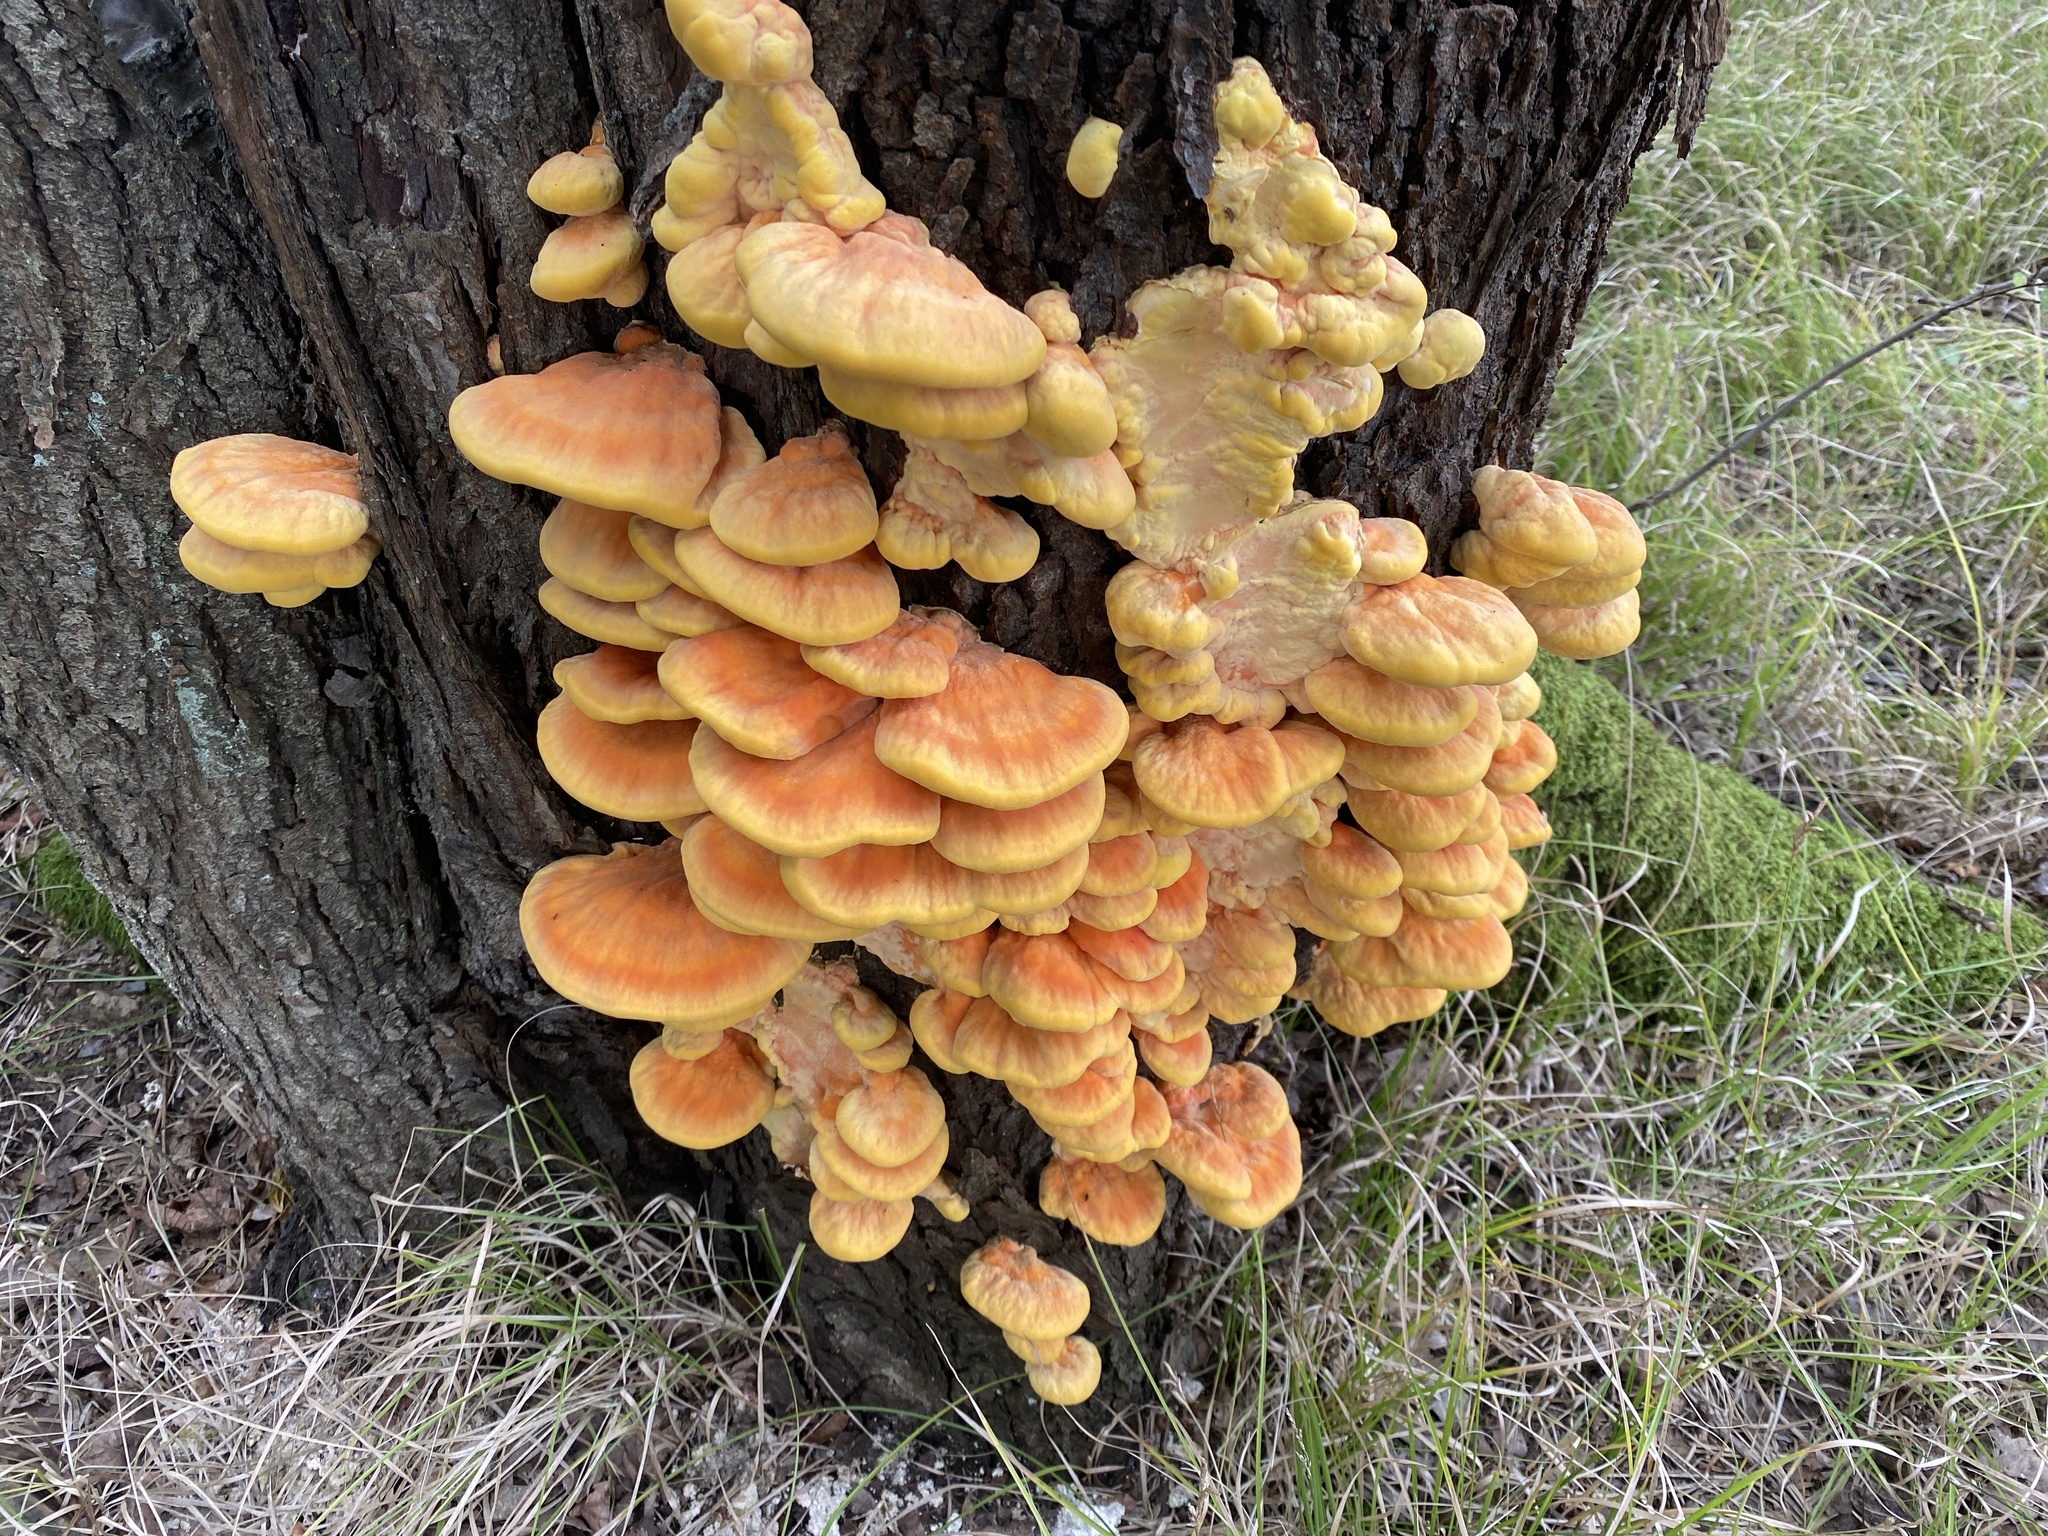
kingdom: Fungi
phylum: Basidiomycota
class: Agaricomycetes
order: Polyporales
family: Laetiporaceae
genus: Laetiporus
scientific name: Laetiporus sulphureus
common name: Chicken of the woods
